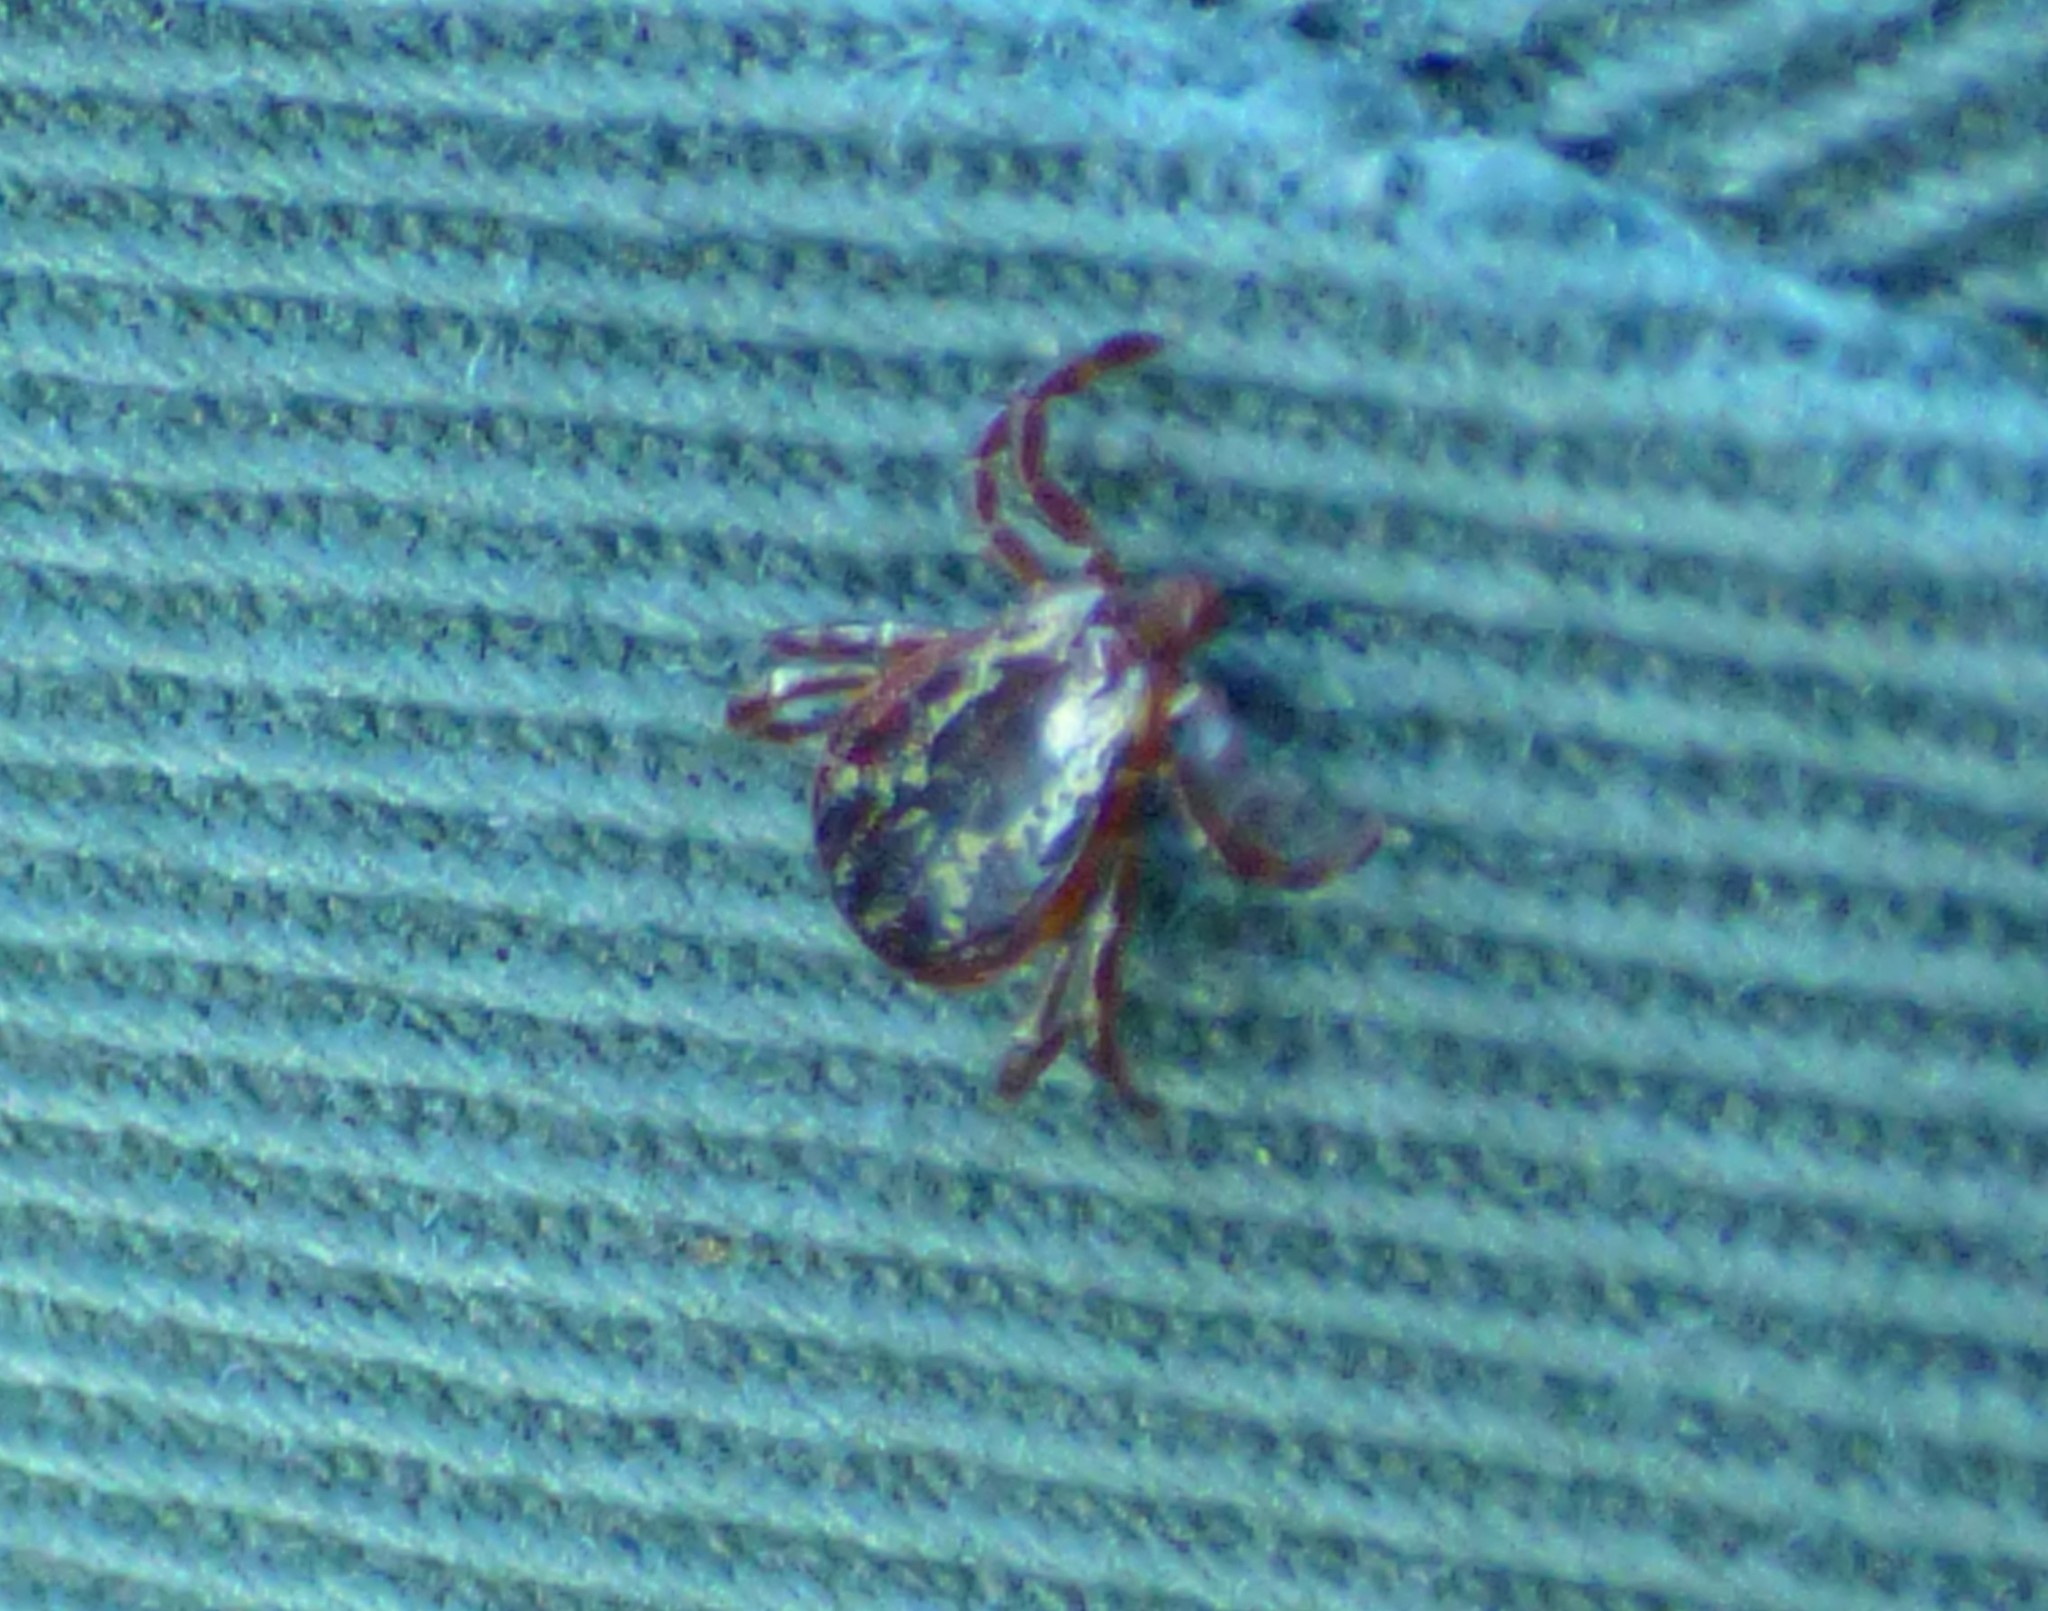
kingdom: Animalia
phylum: Arthropoda
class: Arachnida
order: Ixodida
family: Ixodidae
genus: Dermacentor
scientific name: Dermacentor variabilis
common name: American dog tick
